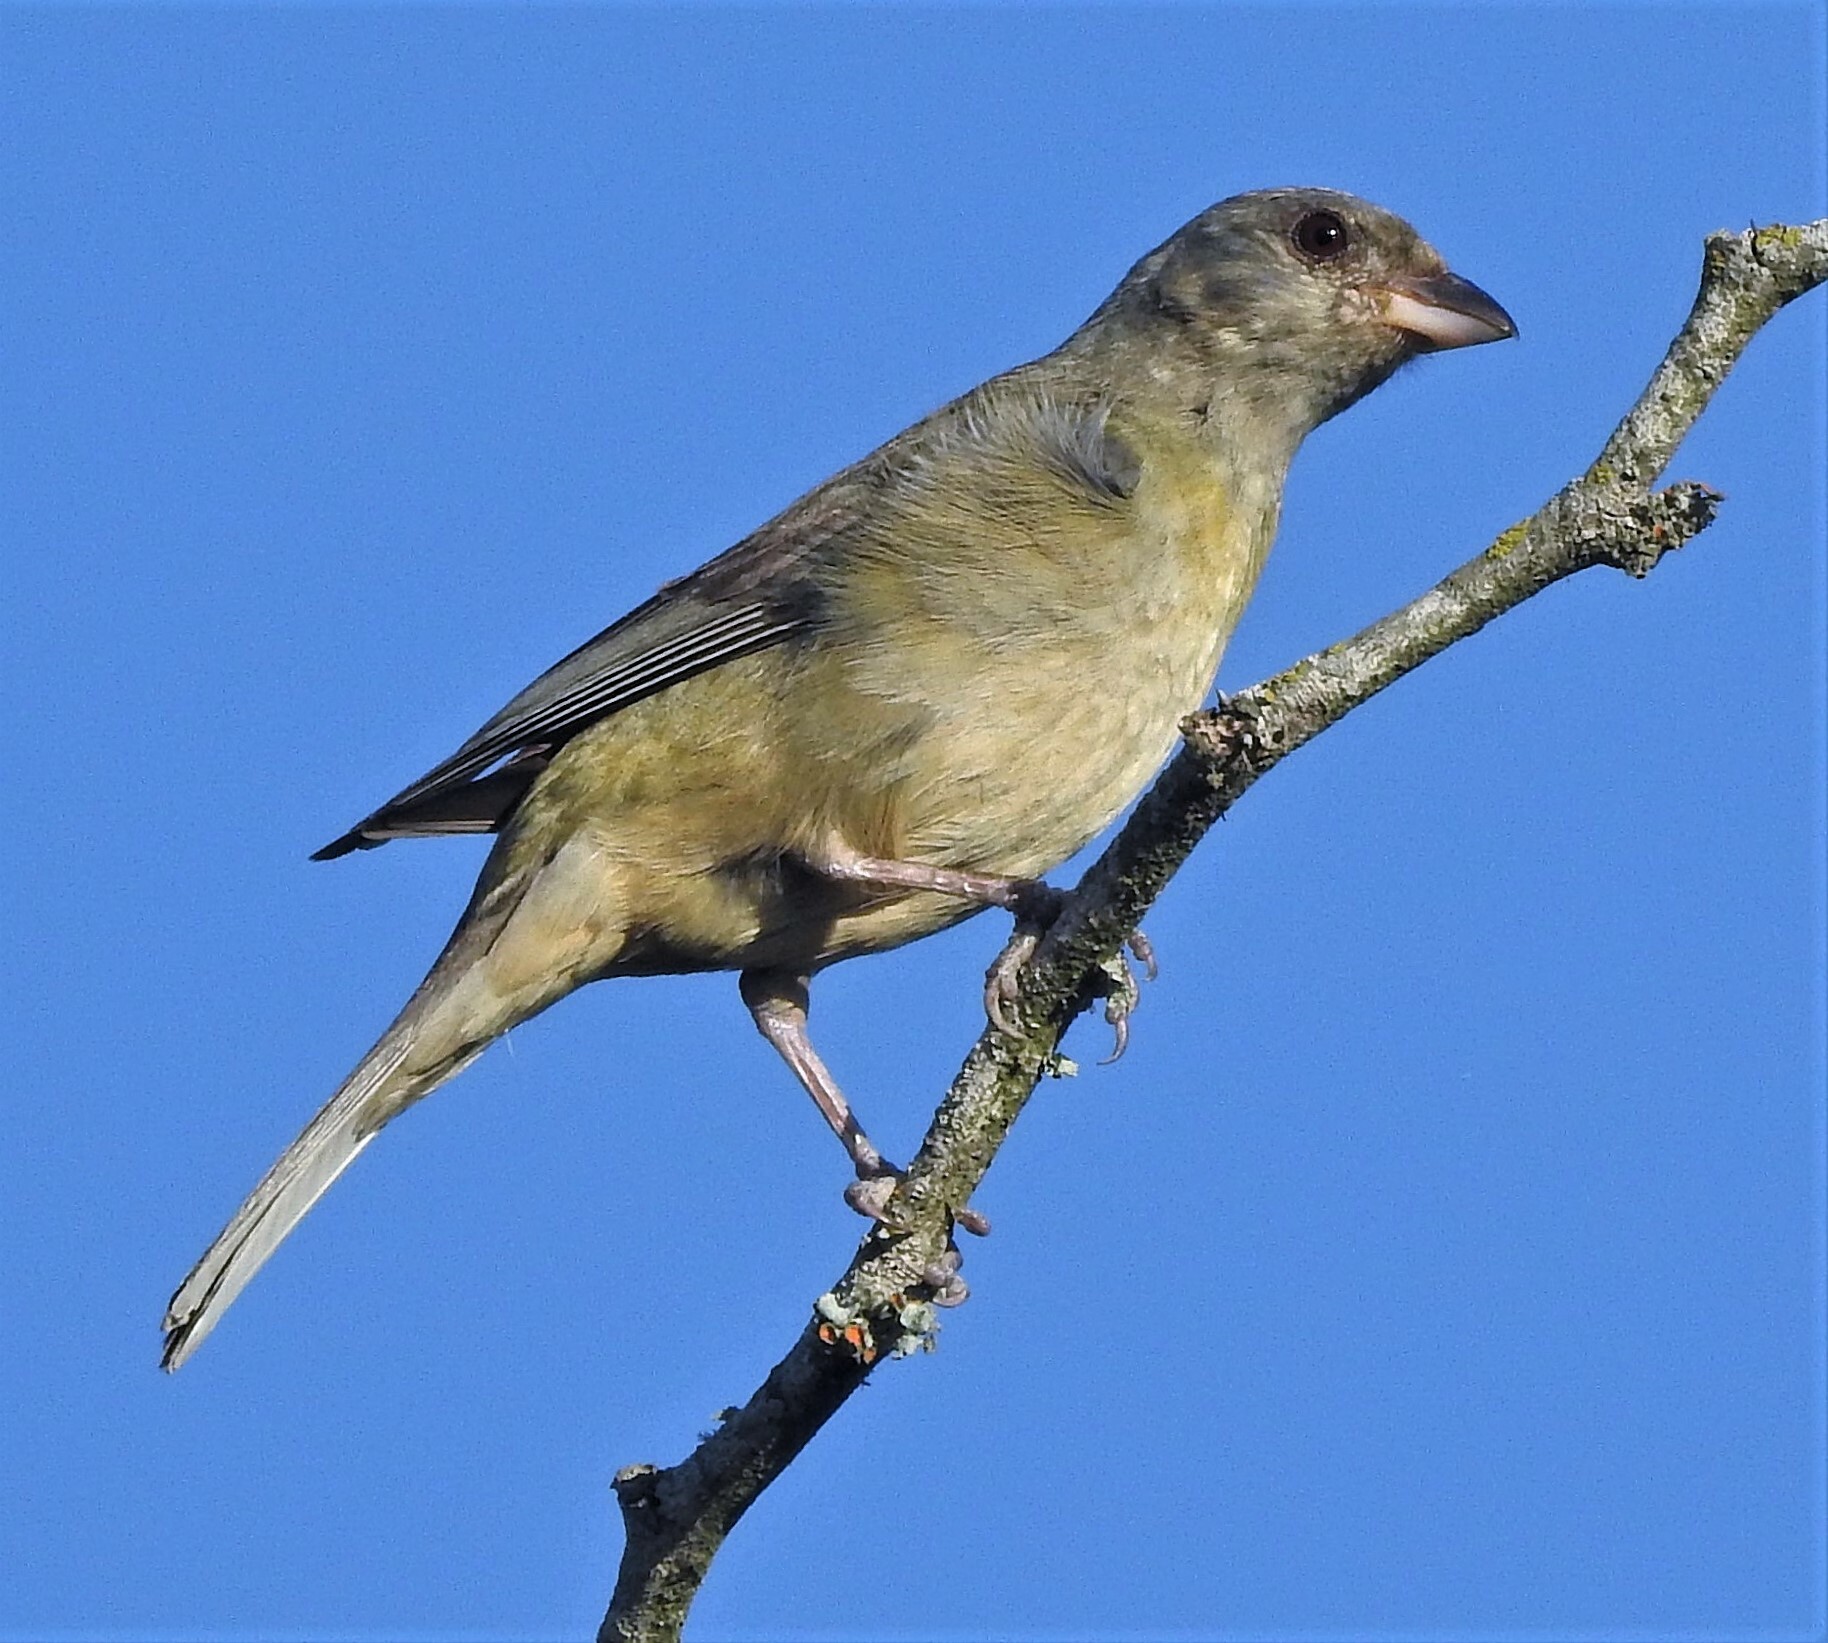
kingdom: Animalia
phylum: Chordata
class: Aves
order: Passeriformes
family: Thraupidae
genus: Rauenia
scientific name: Rauenia bonariensis
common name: Blue-and-yellow tanager
